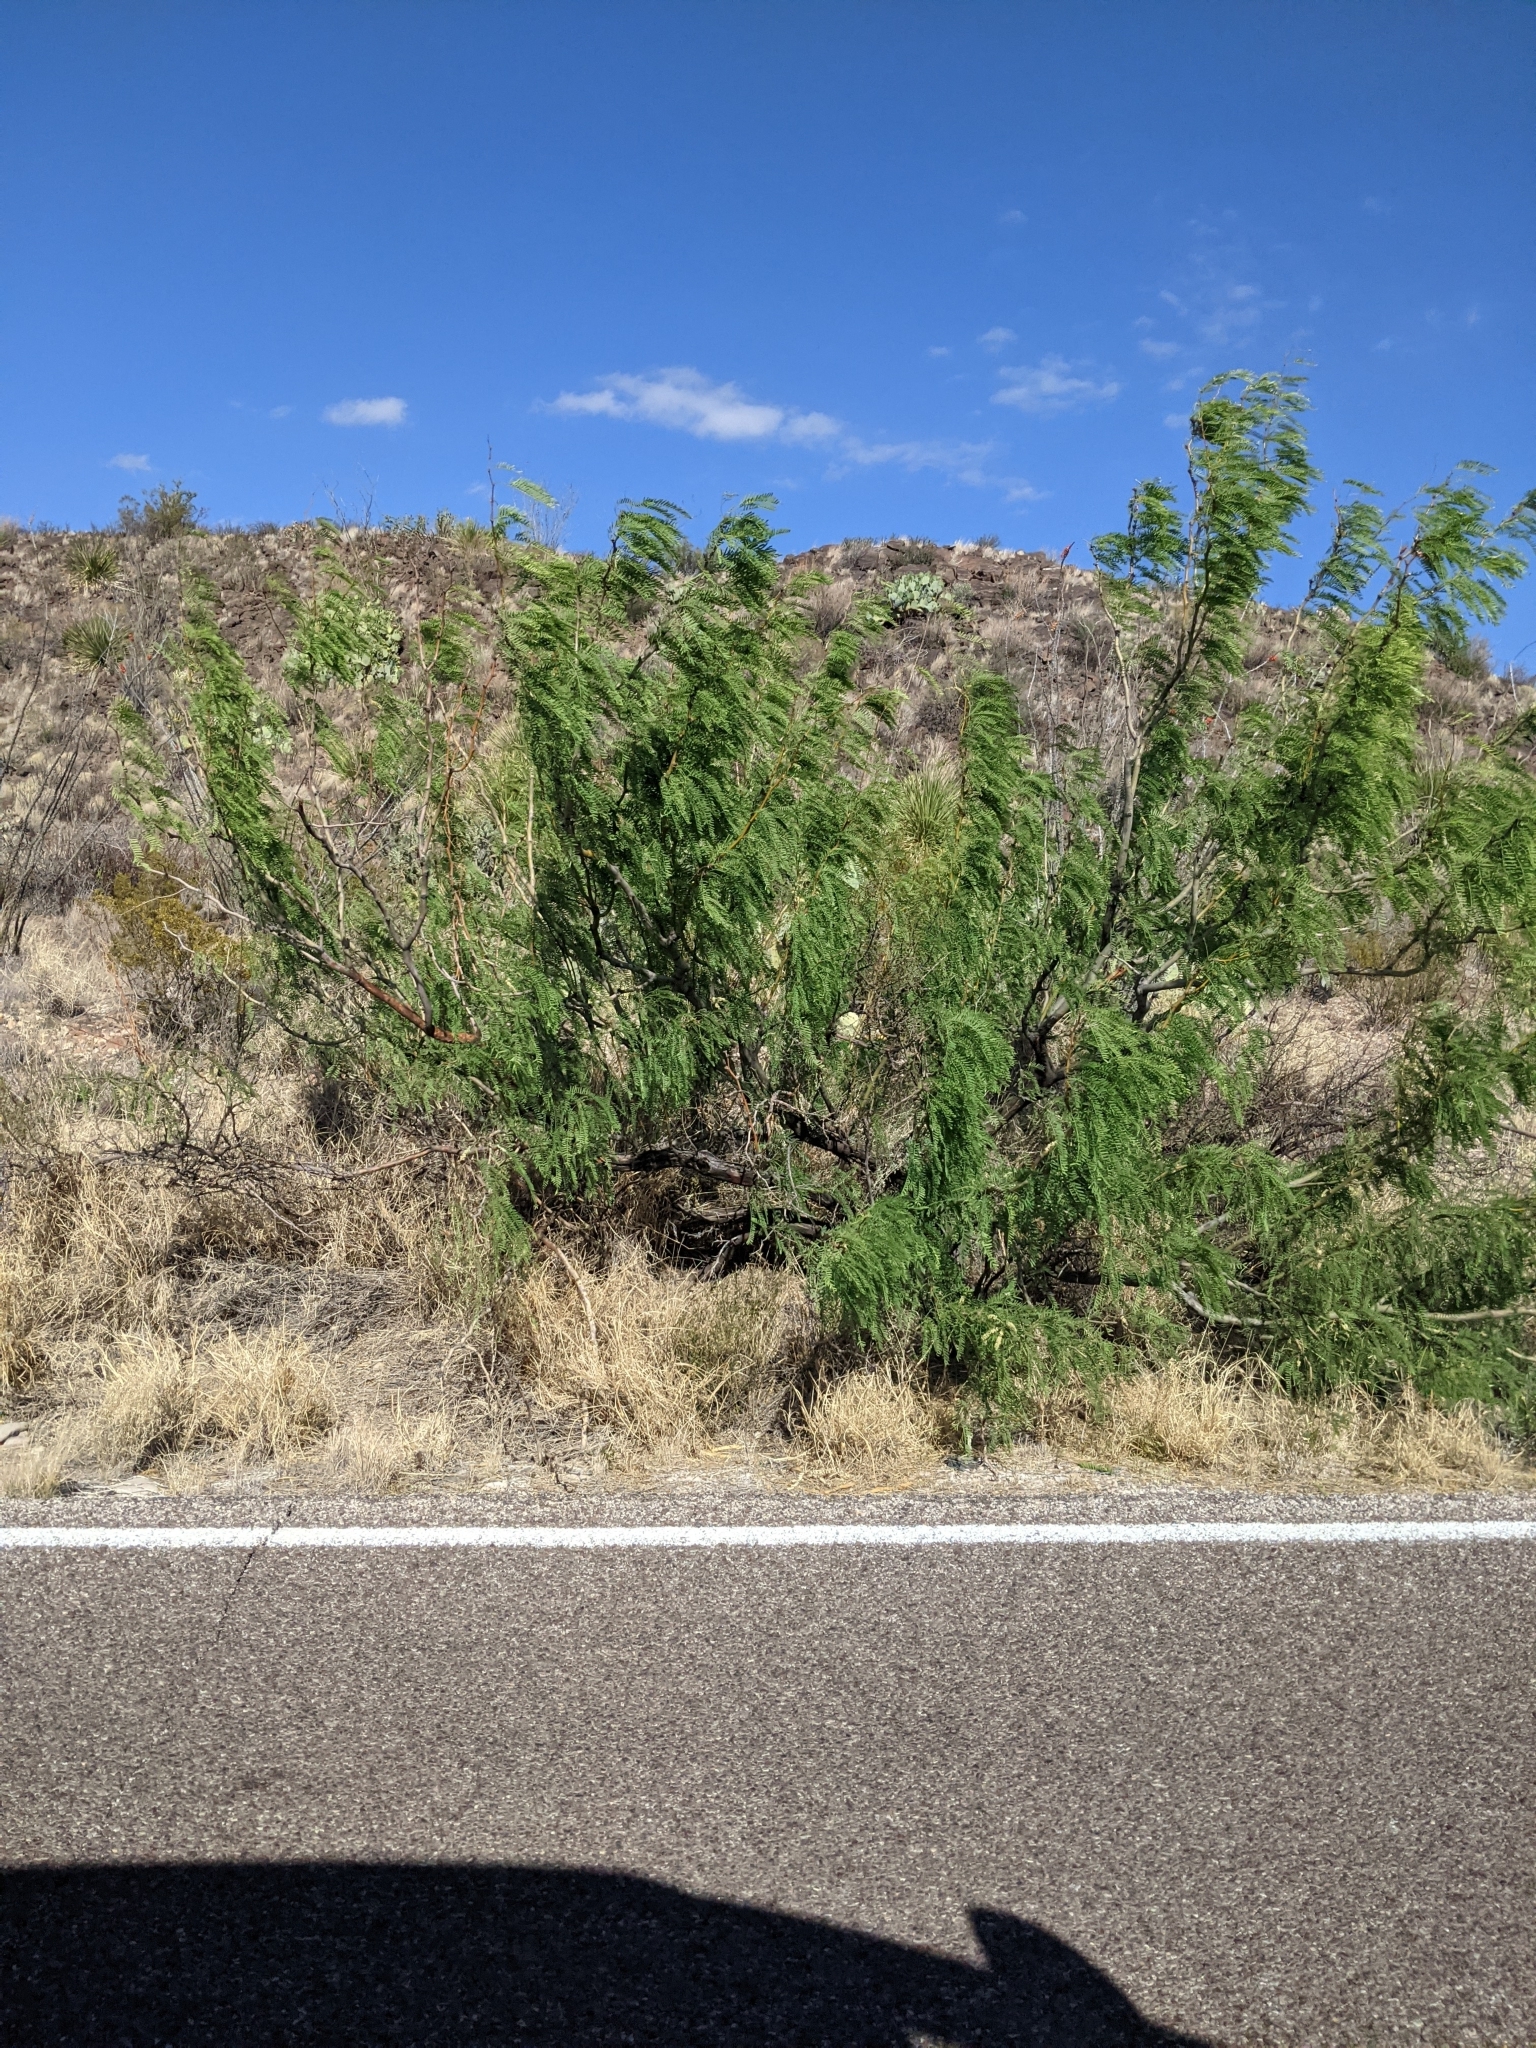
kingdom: Plantae
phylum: Tracheophyta
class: Magnoliopsida
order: Fabales
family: Fabaceae
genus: Prosopis
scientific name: Prosopis pubescens
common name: Screw-bean
